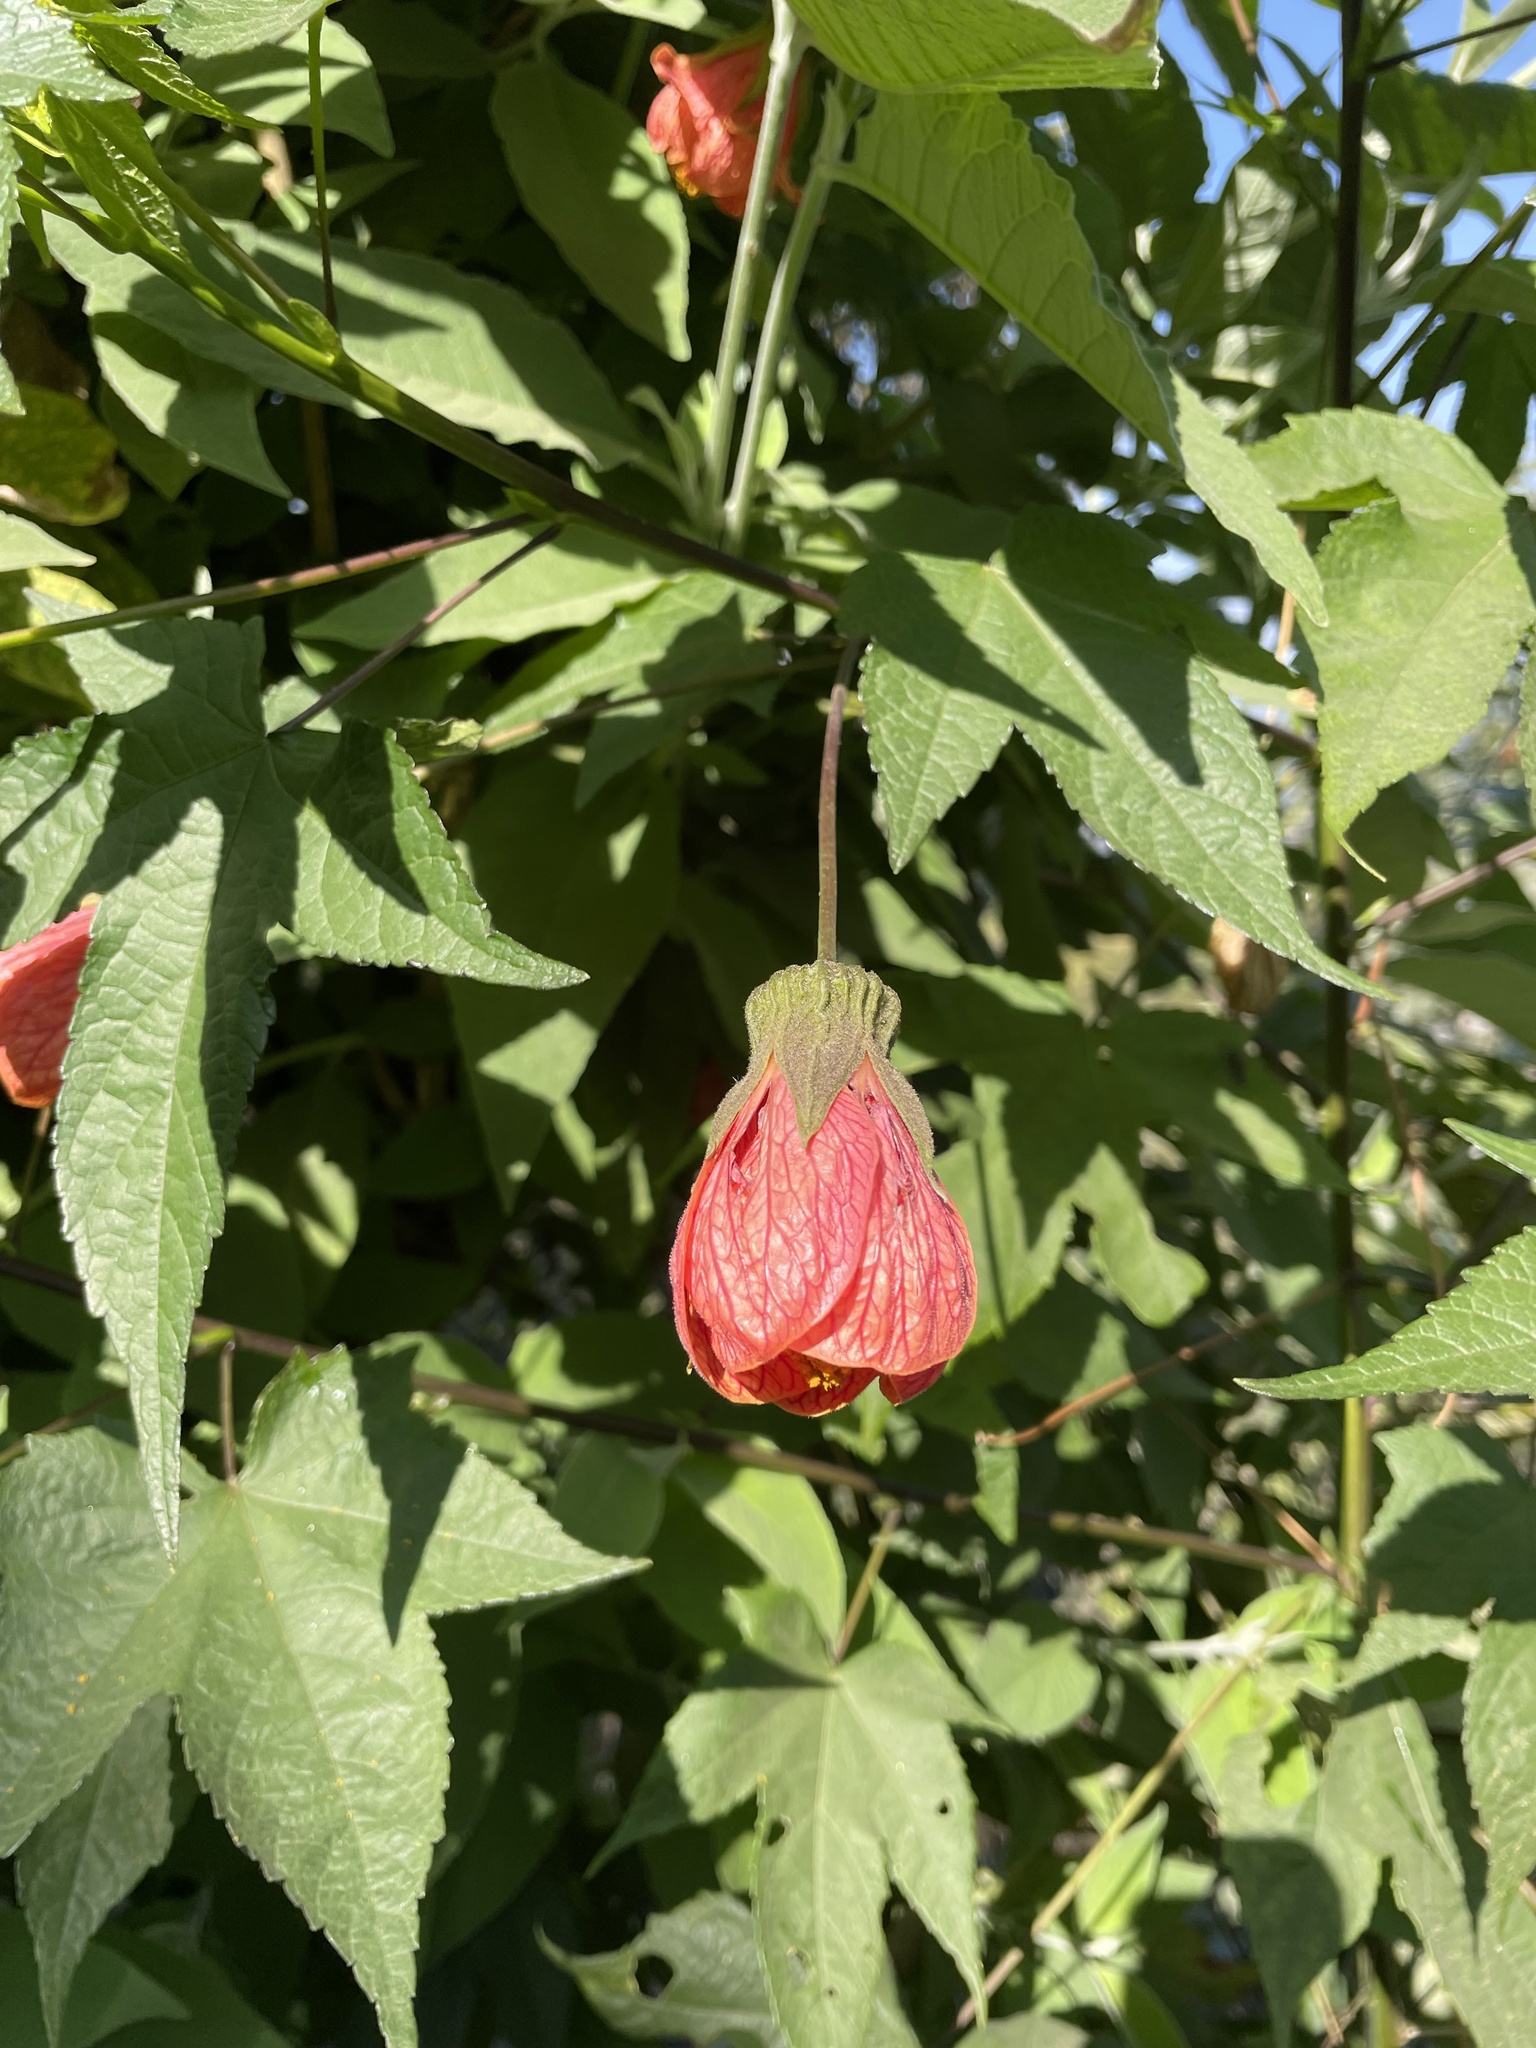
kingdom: Plantae
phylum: Tracheophyta
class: Magnoliopsida
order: Malvales
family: Malvaceae
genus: Callianthe
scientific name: Callianthe picta
